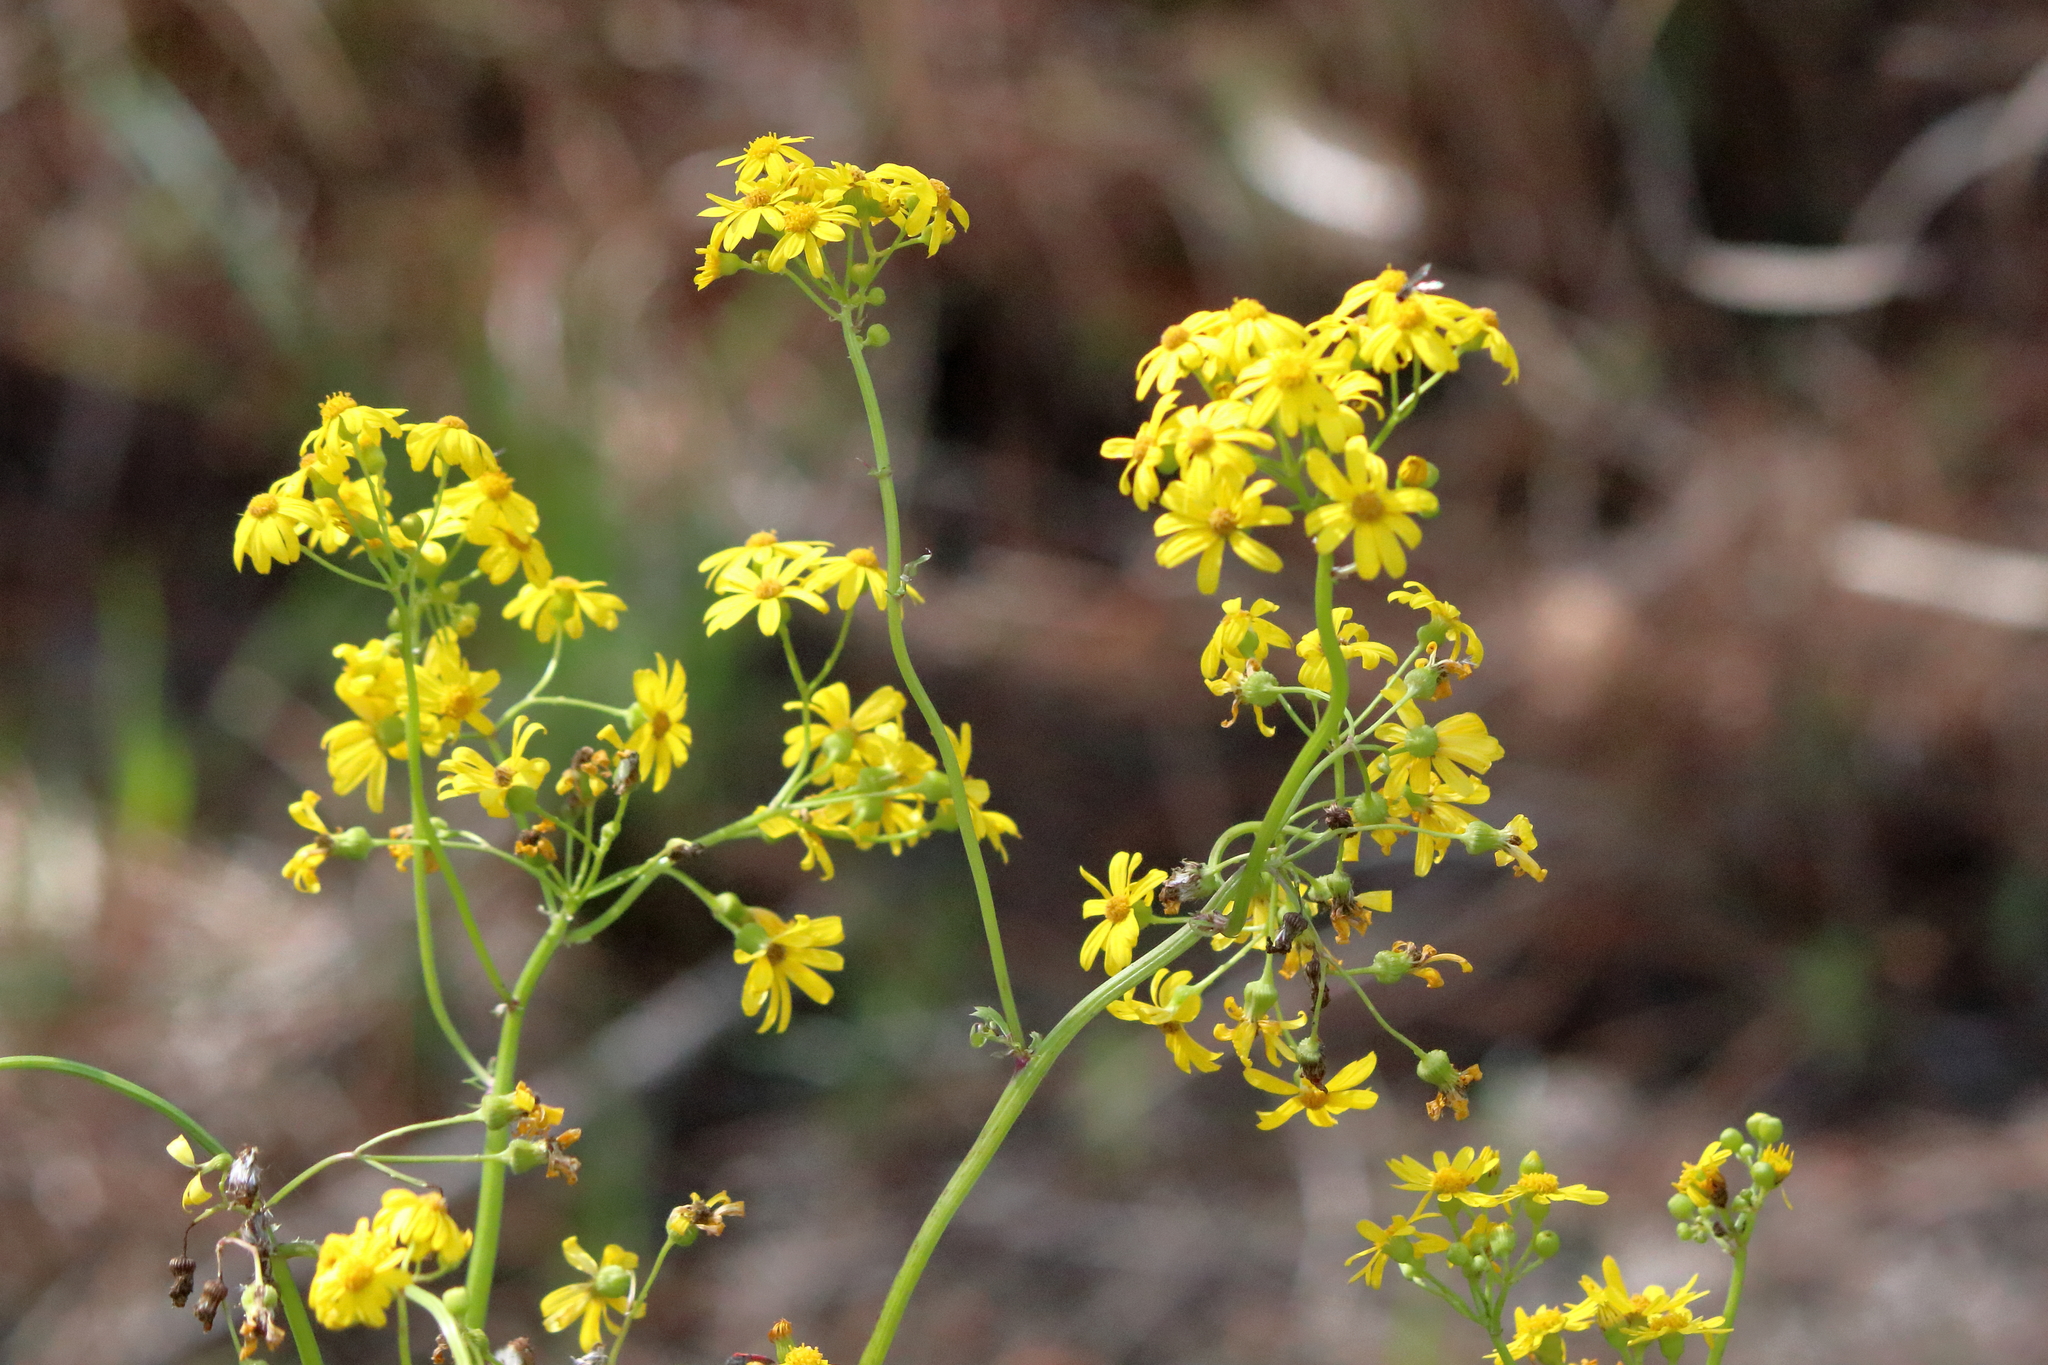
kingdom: Plantae
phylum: Tracheophyta
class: Magnoliopsida
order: Asterales
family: Asteraceae
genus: Packera
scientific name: Packera glabella
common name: Butterweed
